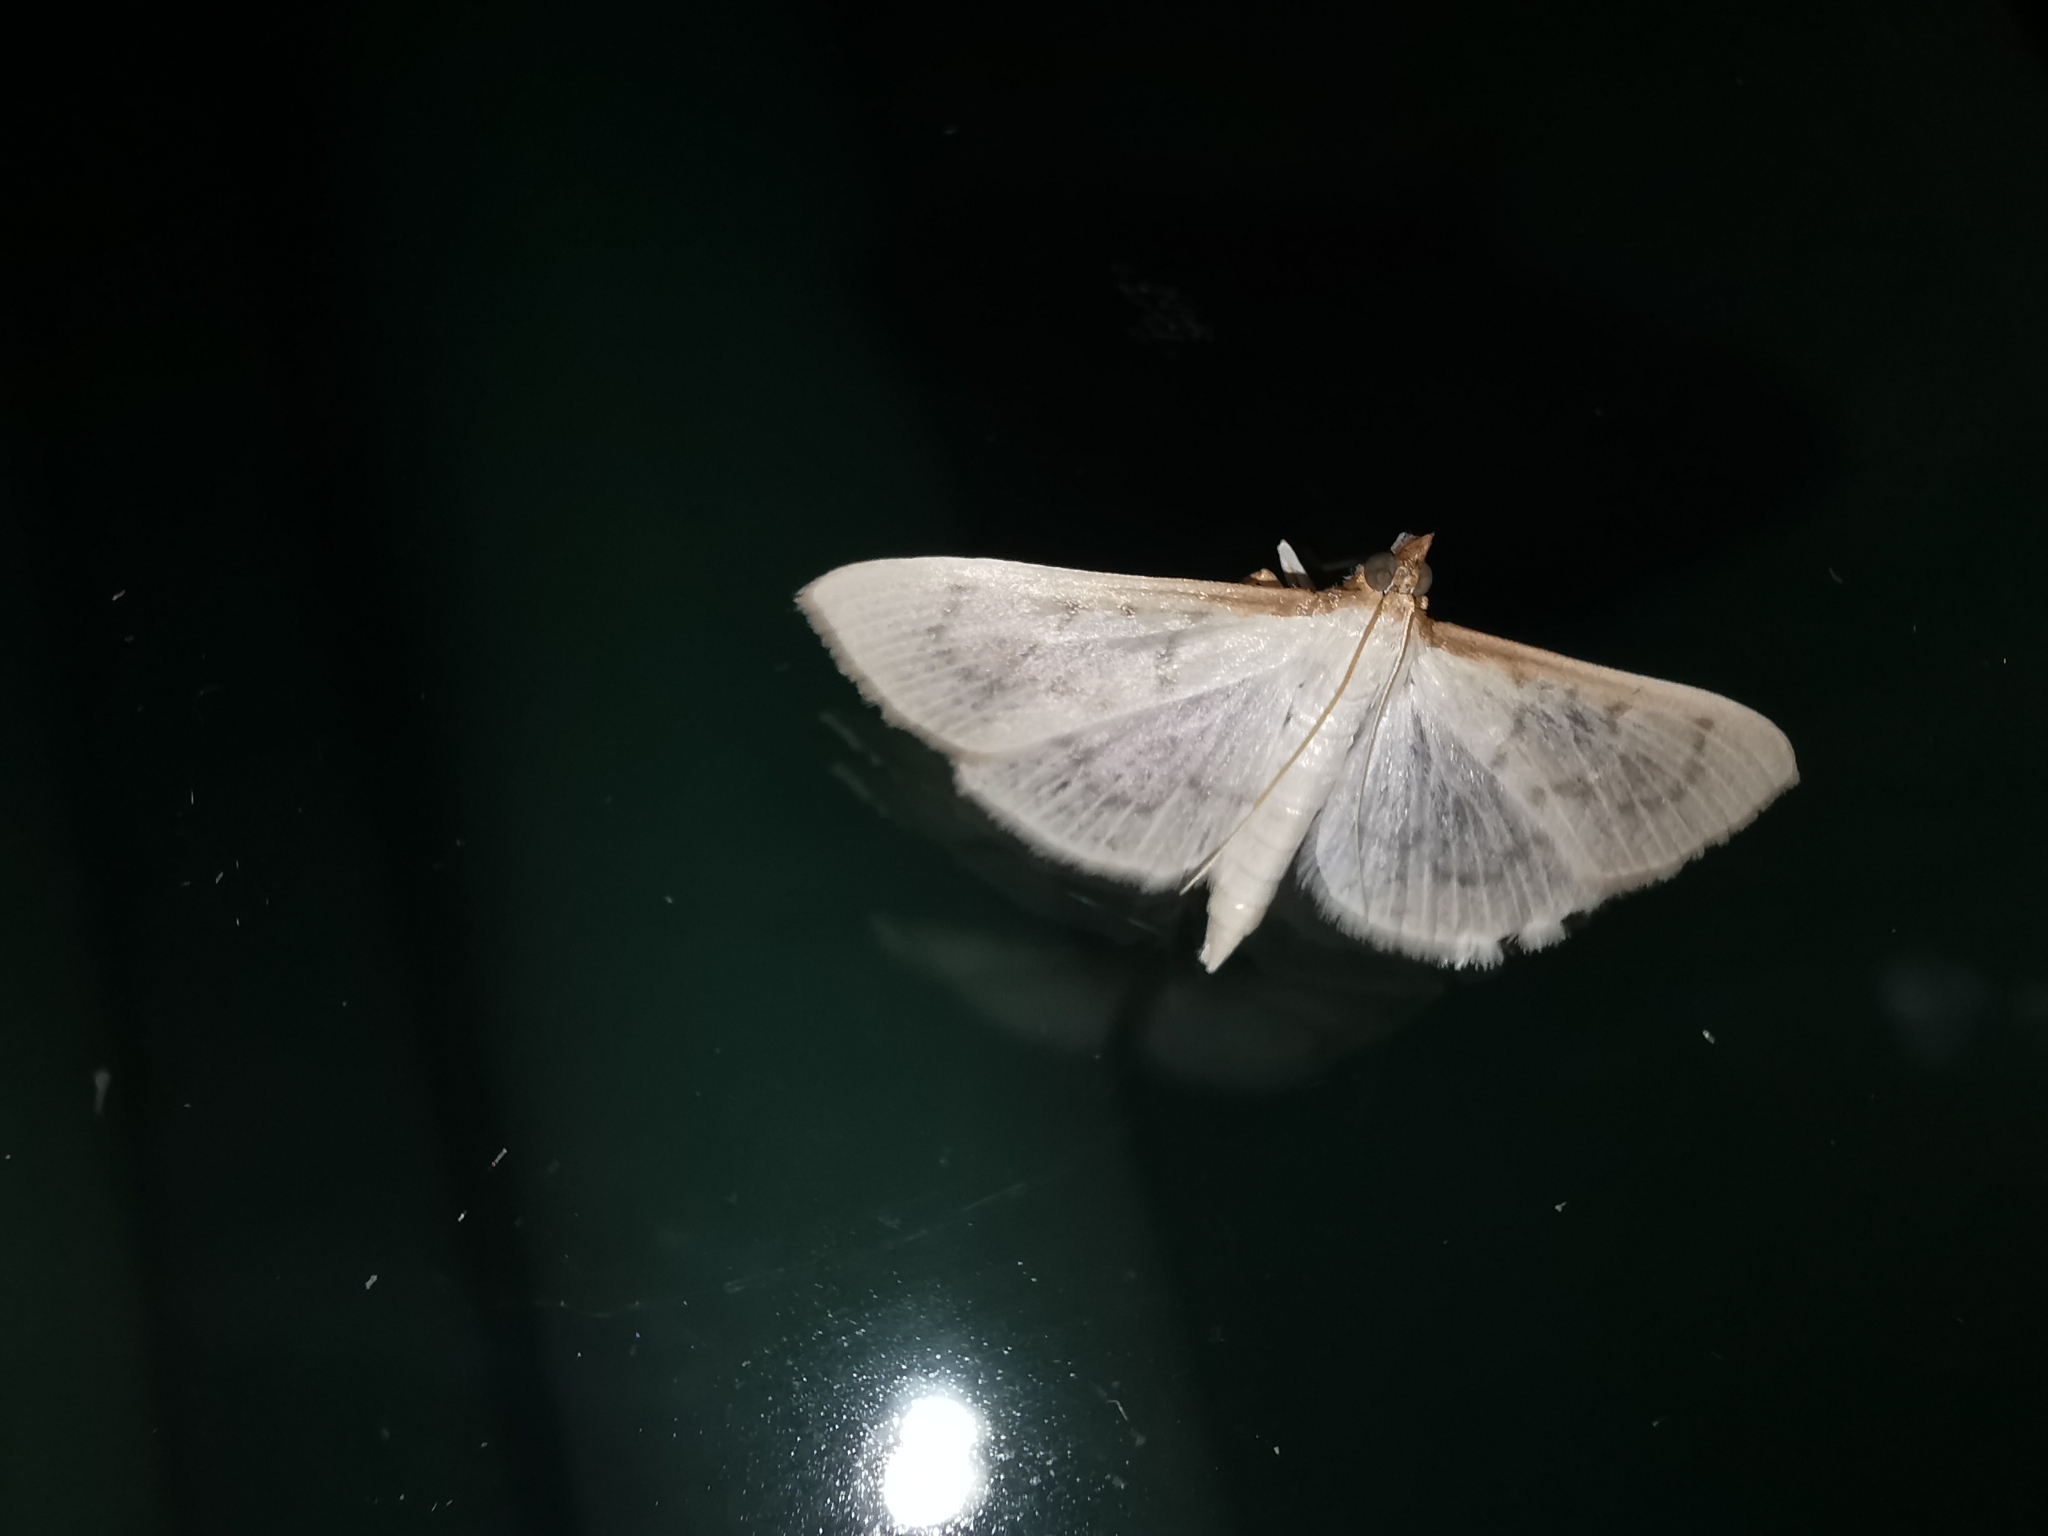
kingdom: Animalia
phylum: Arthropoda
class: Insecta
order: Lepidoptera
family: Crambidae
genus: Pyrausta
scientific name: Pyrausta testalis
